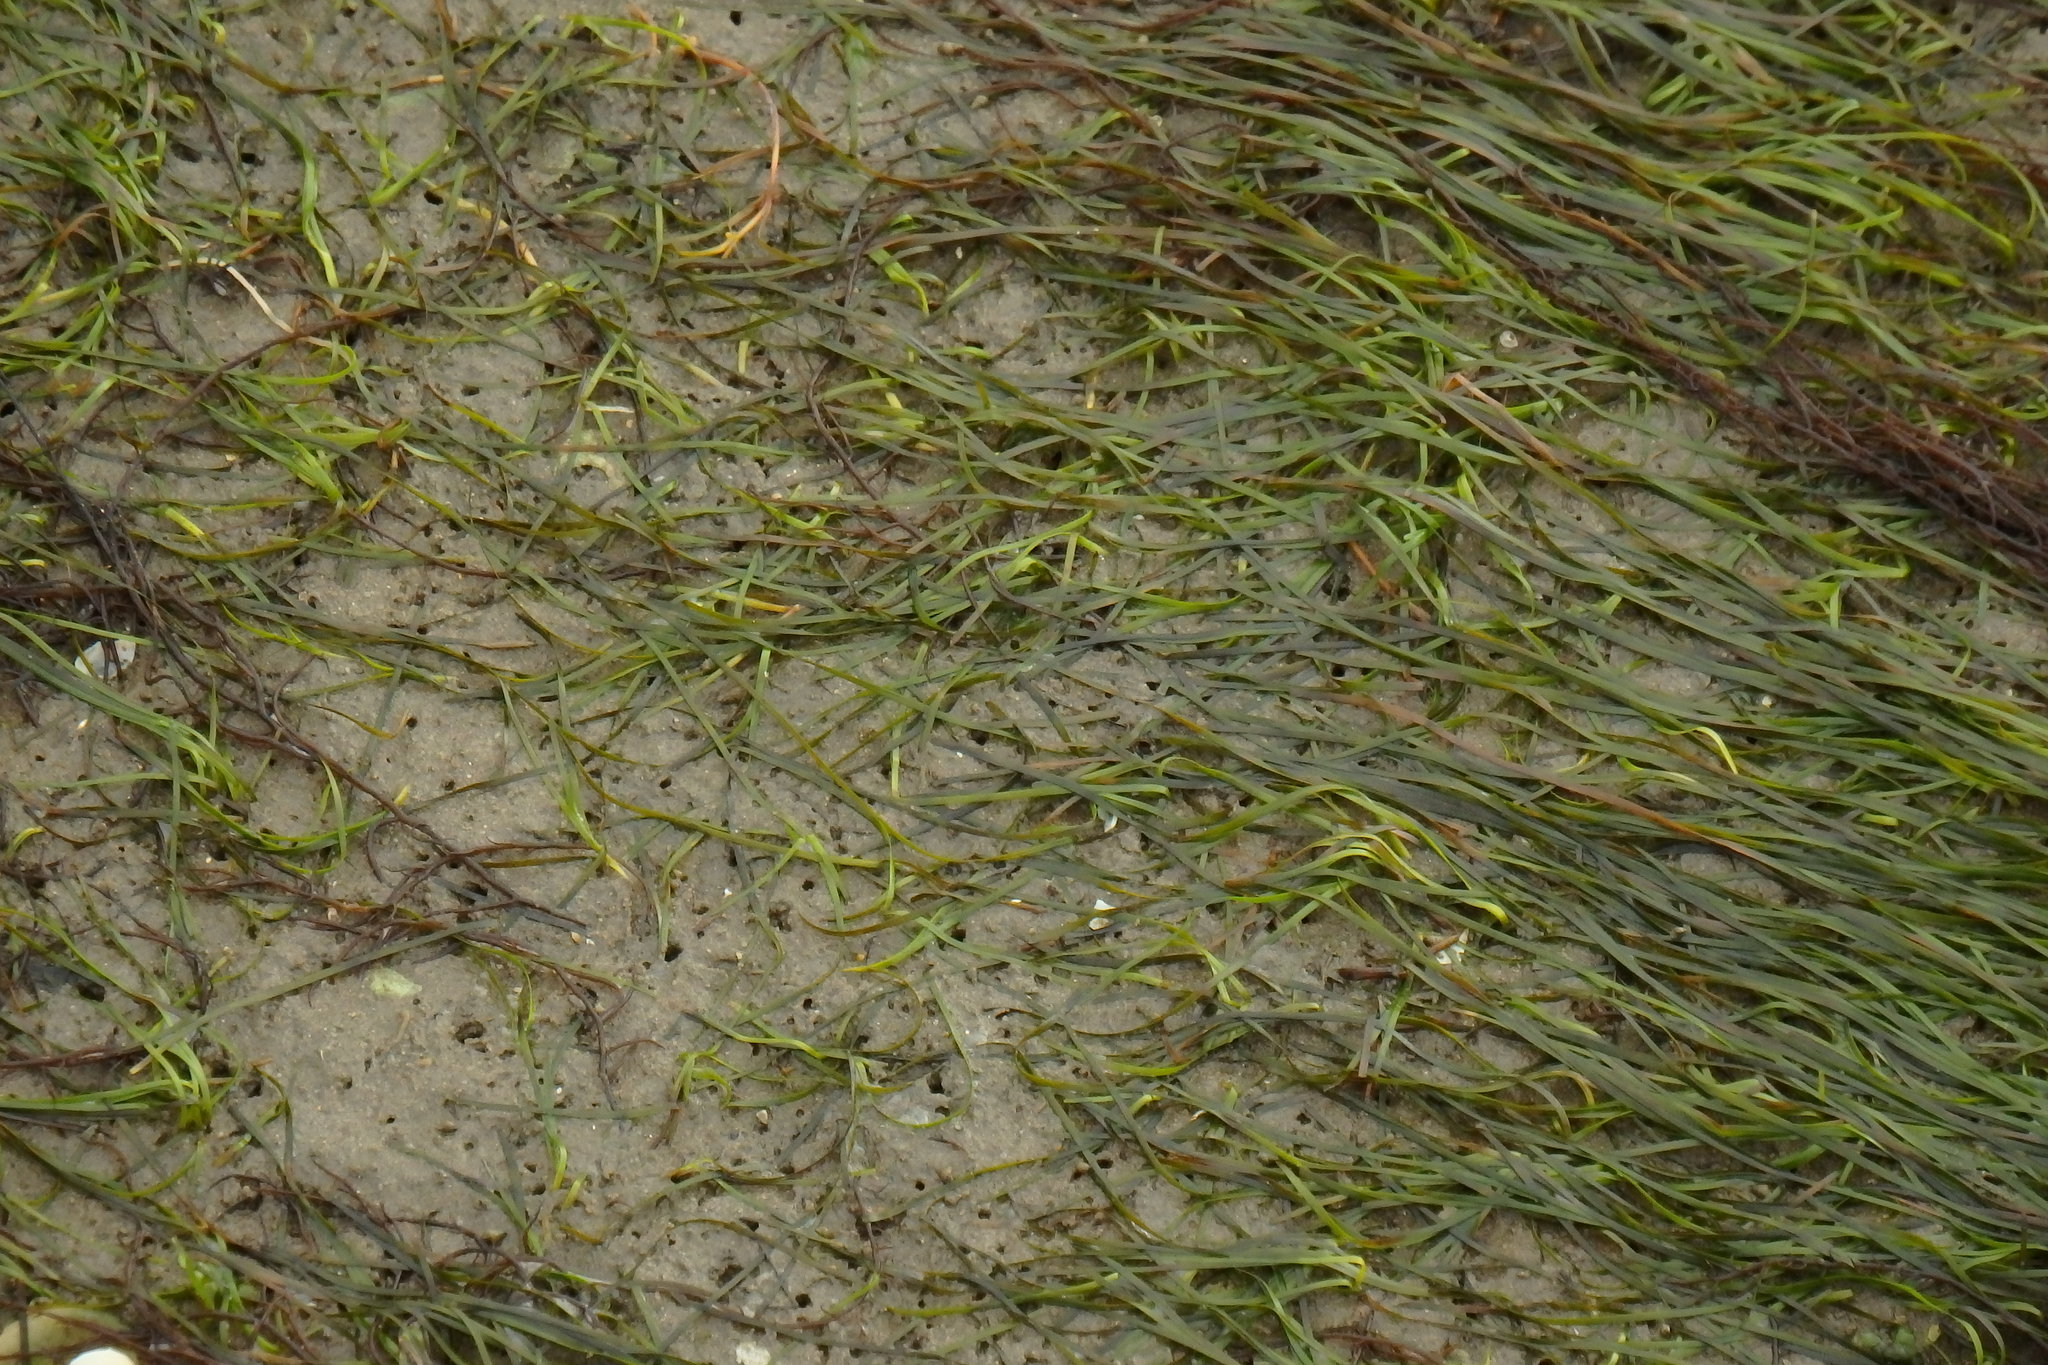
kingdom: Plantae
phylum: Tracheophyta
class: Liliopsida
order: Alismatales
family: Zosteraceae
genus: Zostera
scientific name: Zostera noltii
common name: Dwarf eelgrass
